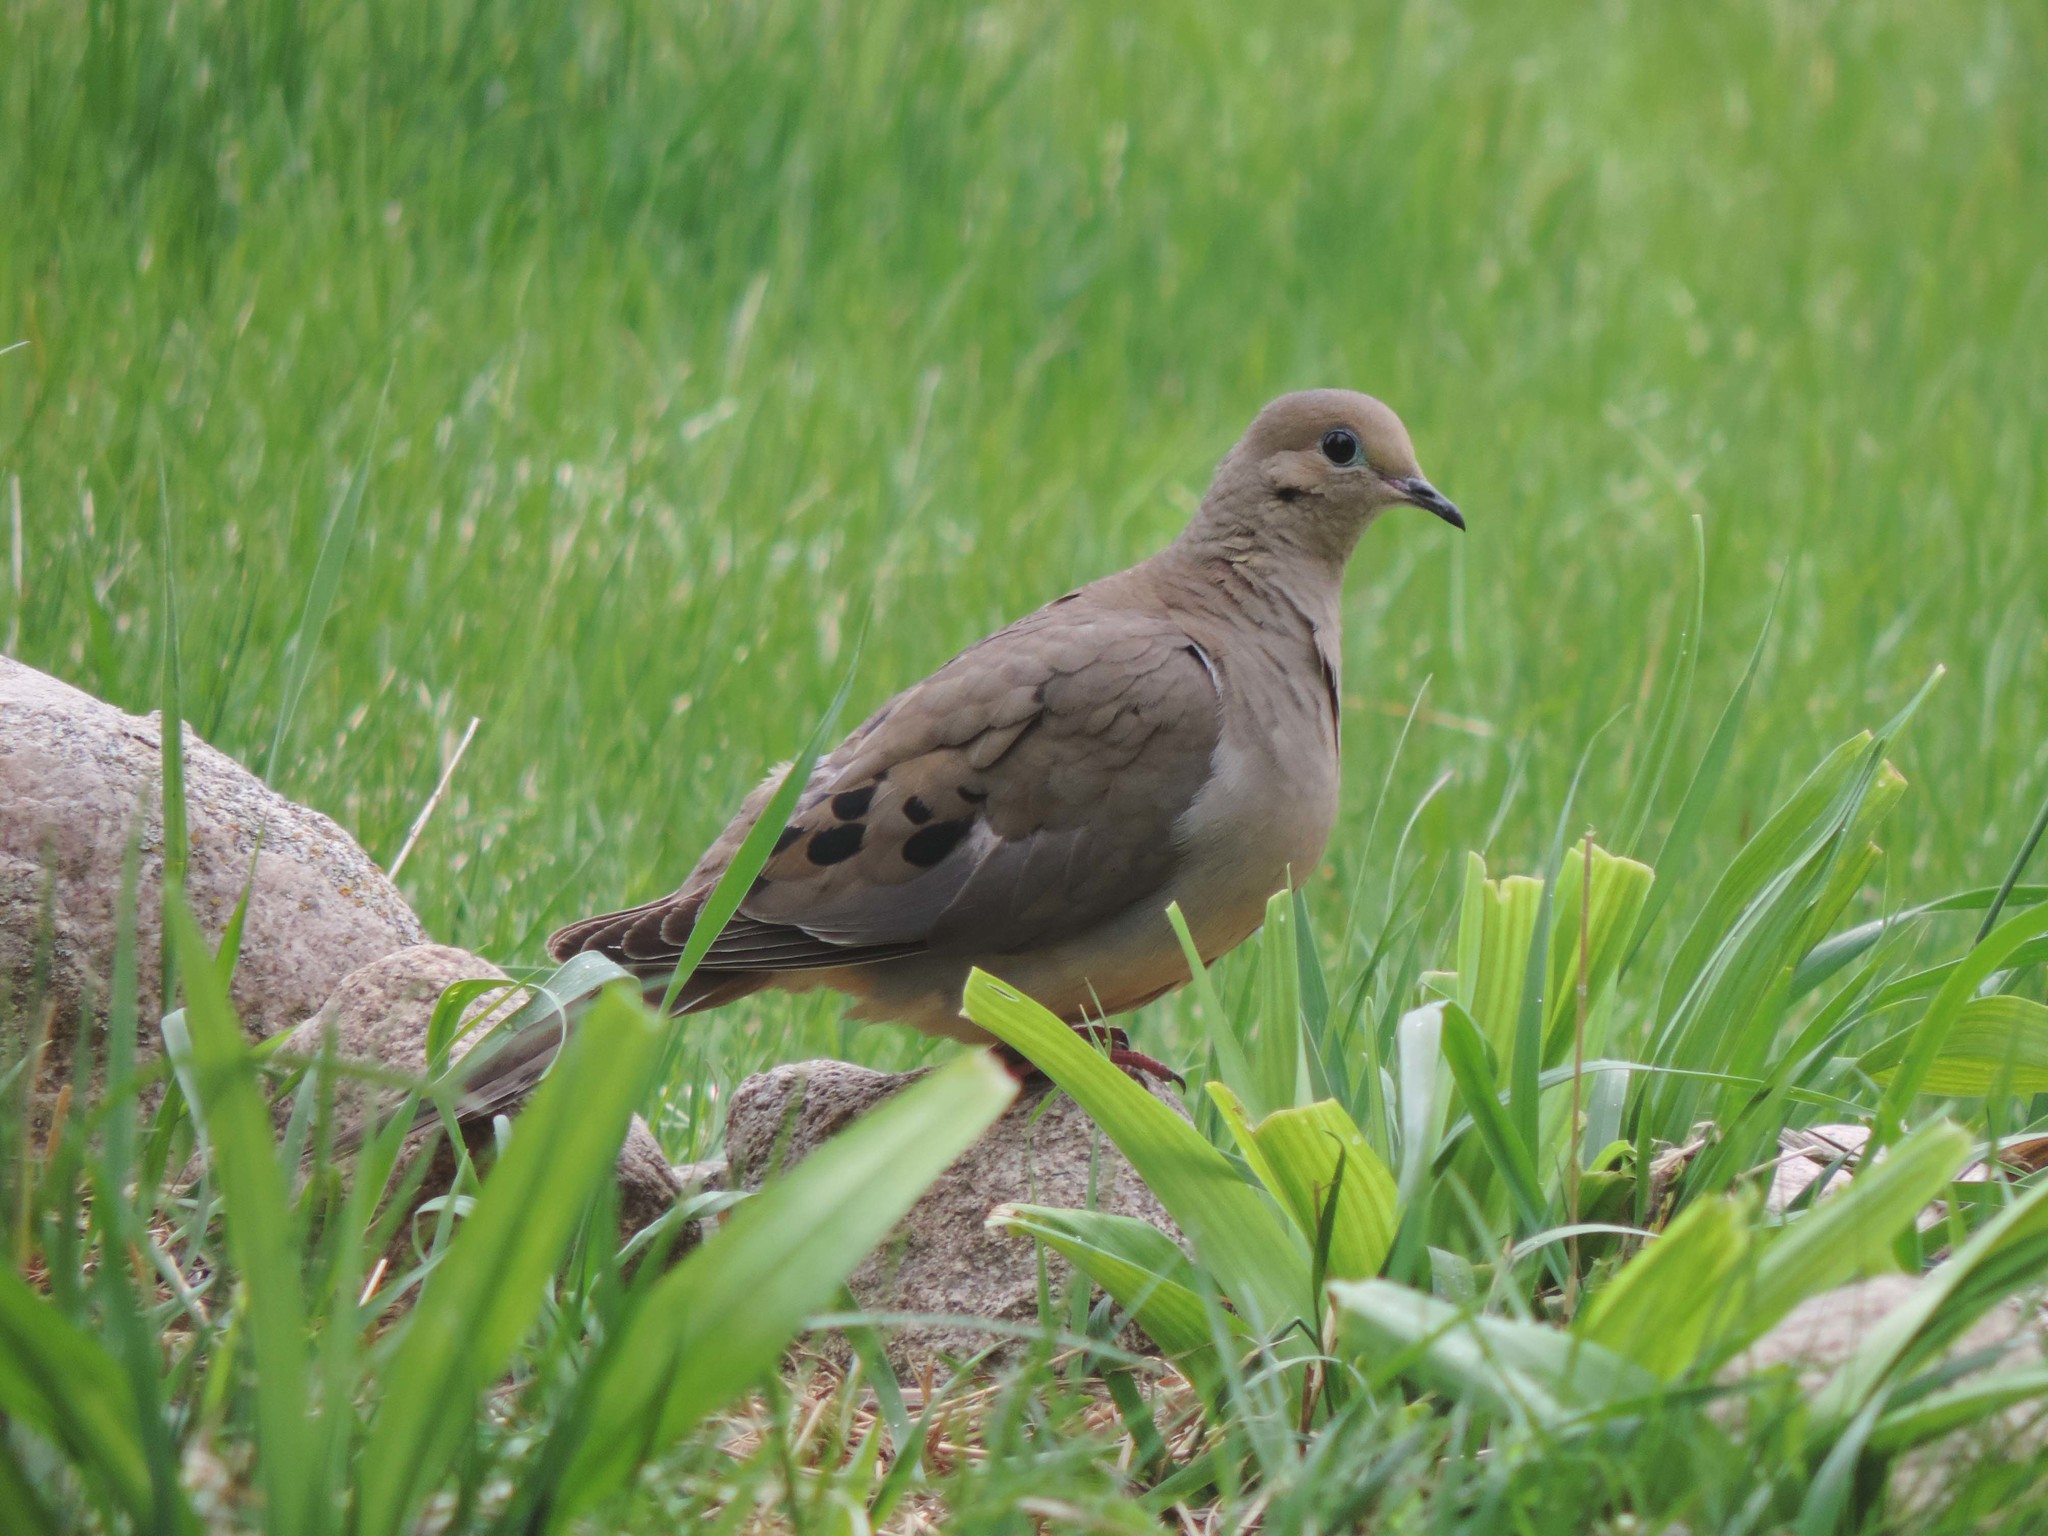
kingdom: Animalia
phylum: Chordata
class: Aves
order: Columbiformes
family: Columbidae
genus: Zenaida
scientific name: Zenaida macroura
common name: Mourning dove
